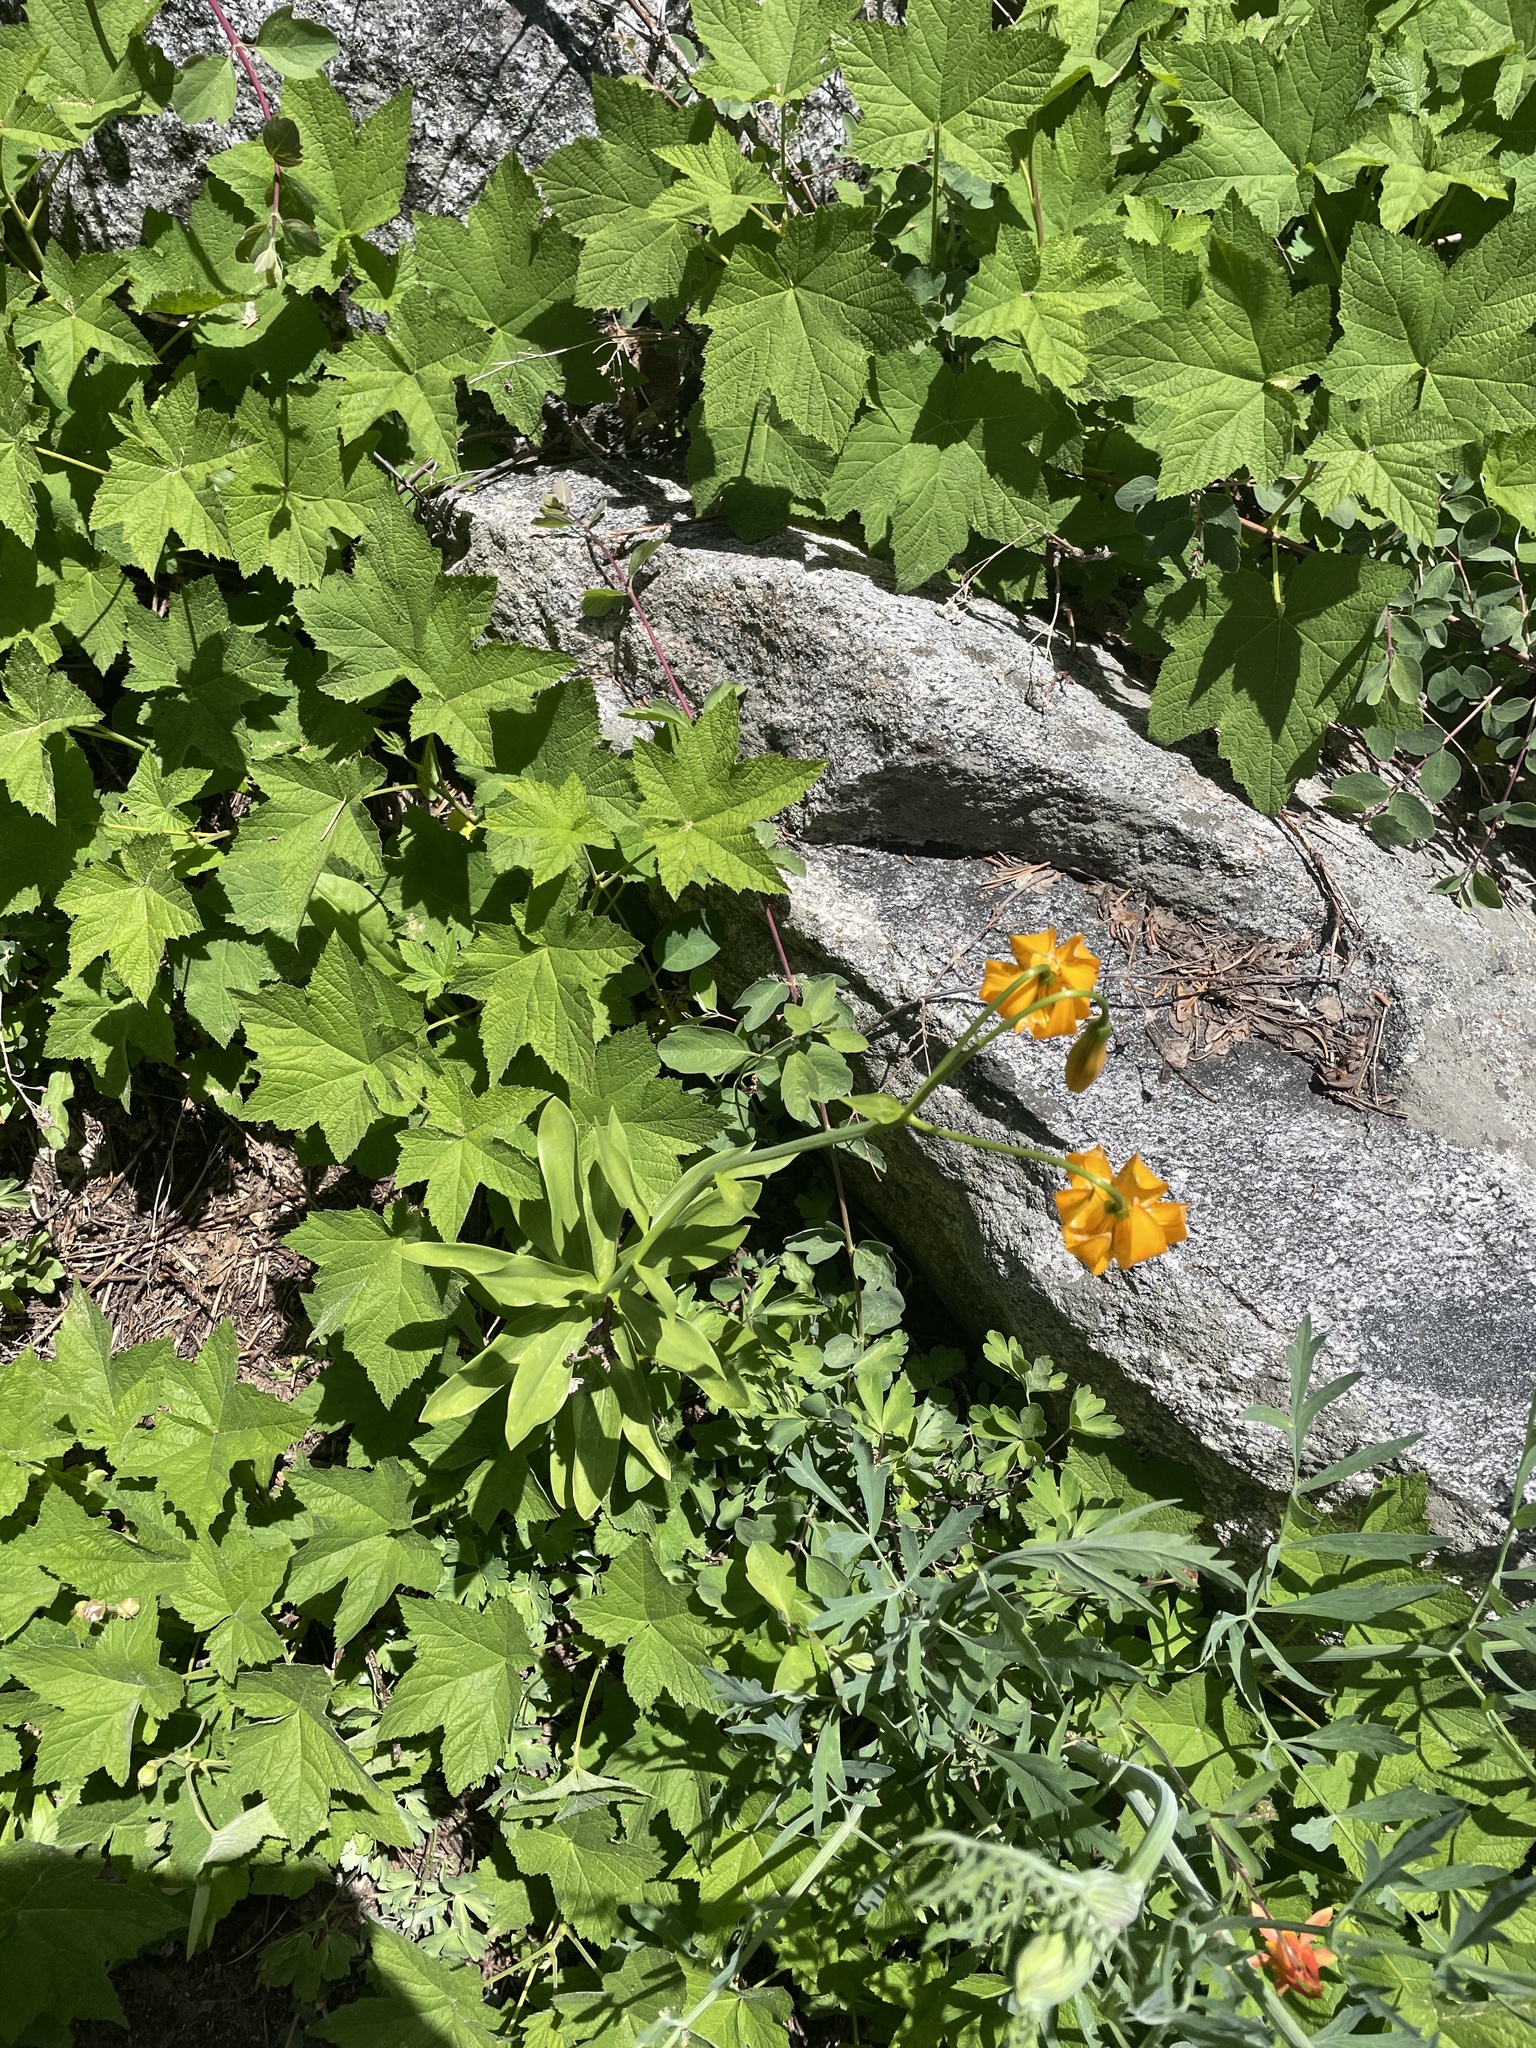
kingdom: Plantae
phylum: Tracheophyta
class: Liliopsida
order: Liliales
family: Liliaceae
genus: Lilium
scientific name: Lilium kelleyanum
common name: Kelley's lily
